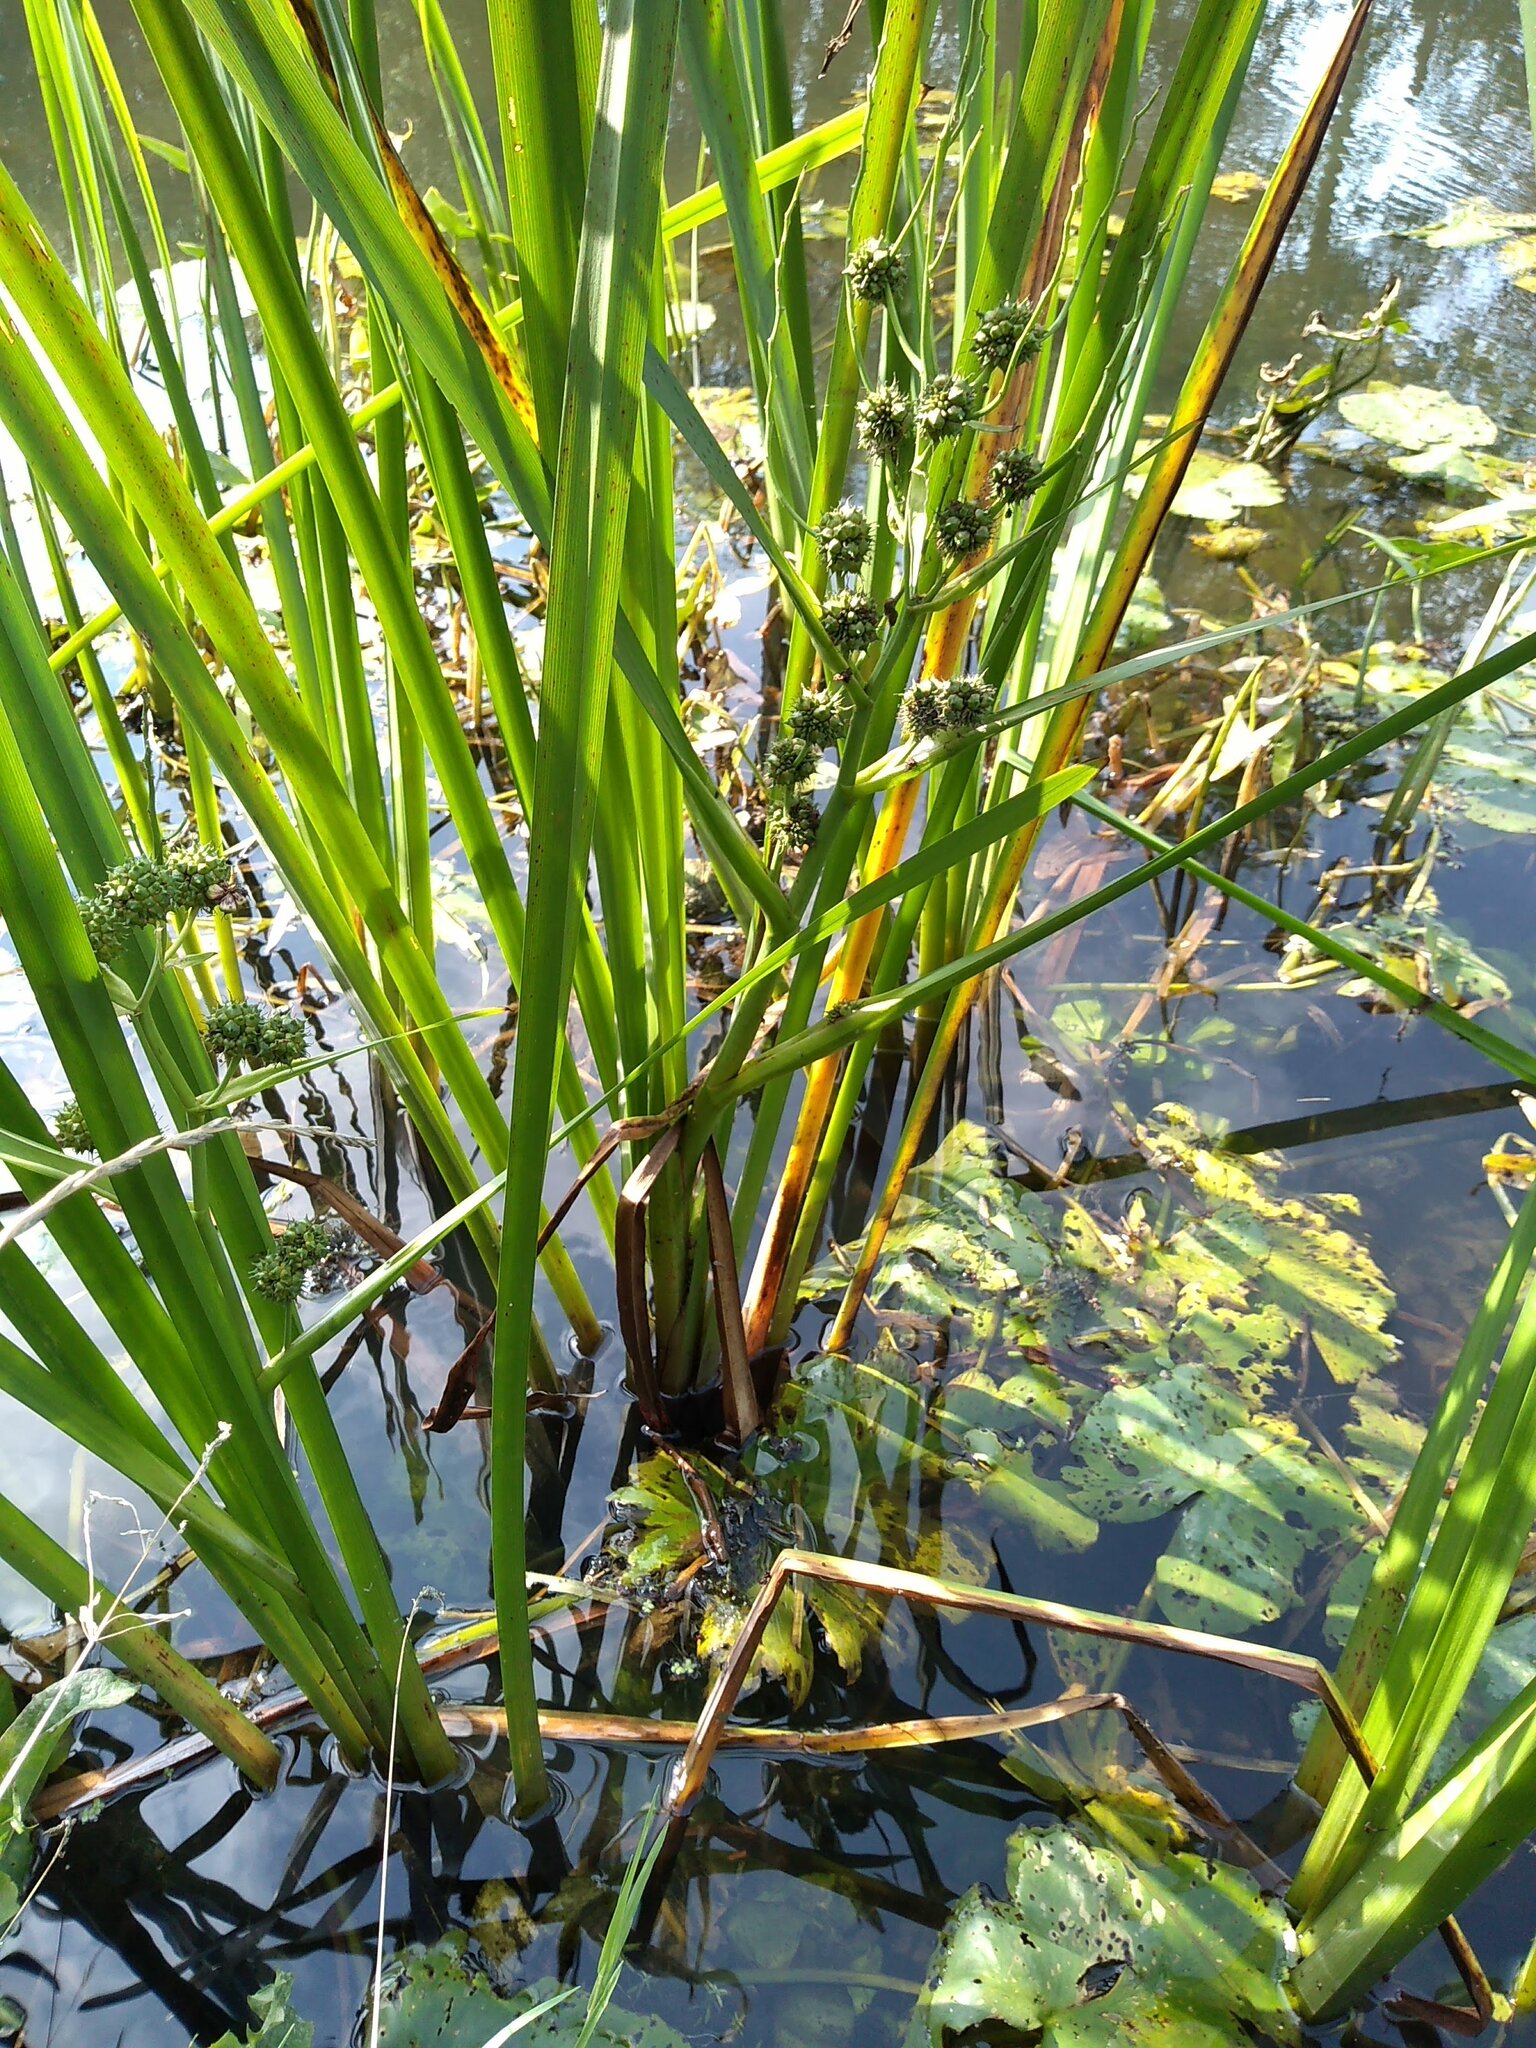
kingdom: Plantae
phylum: Tracheophyta
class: Liliopsida
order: Poales
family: Typhaceae
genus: Sparganium
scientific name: Sparganium erectum
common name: Branched bur-reed
